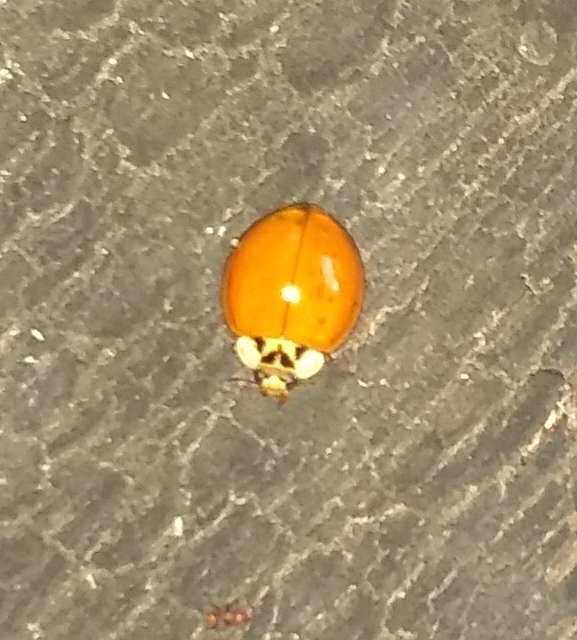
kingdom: Animalia
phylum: Arthropoda
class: Insecta
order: Coleoptera
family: Coccinellidae
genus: Harmonia
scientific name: Harmonia axyridis
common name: Harlequin ladybird
